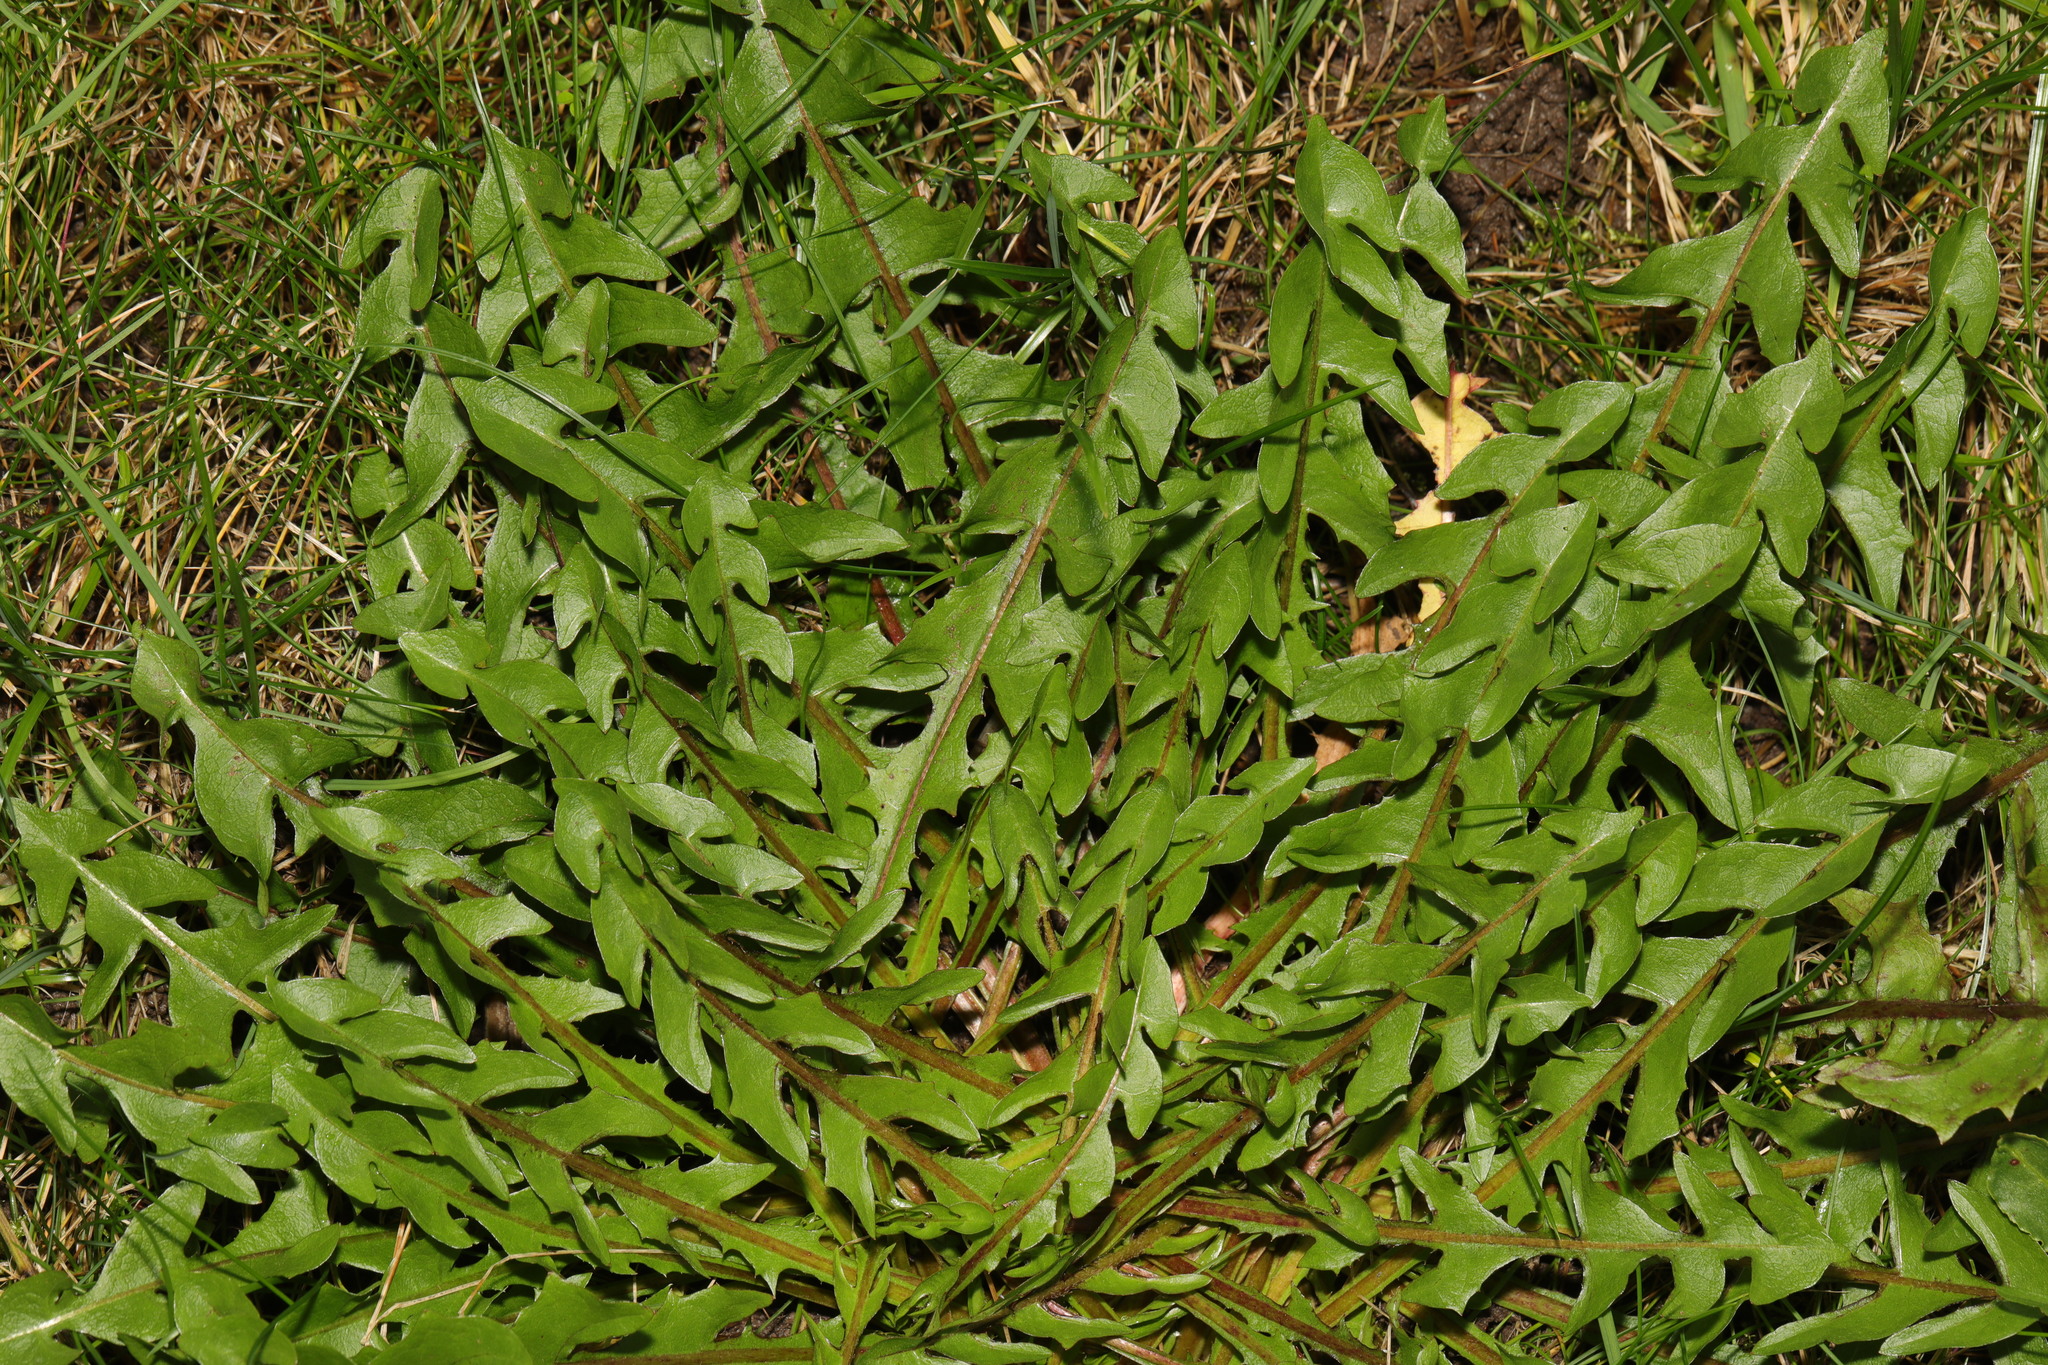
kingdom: Plantae
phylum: Tracheophyta
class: Magnoliopsida
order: Asterales
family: Asteraceae
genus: Taraxacum
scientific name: Taraxacum officinale
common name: Common dandelion
